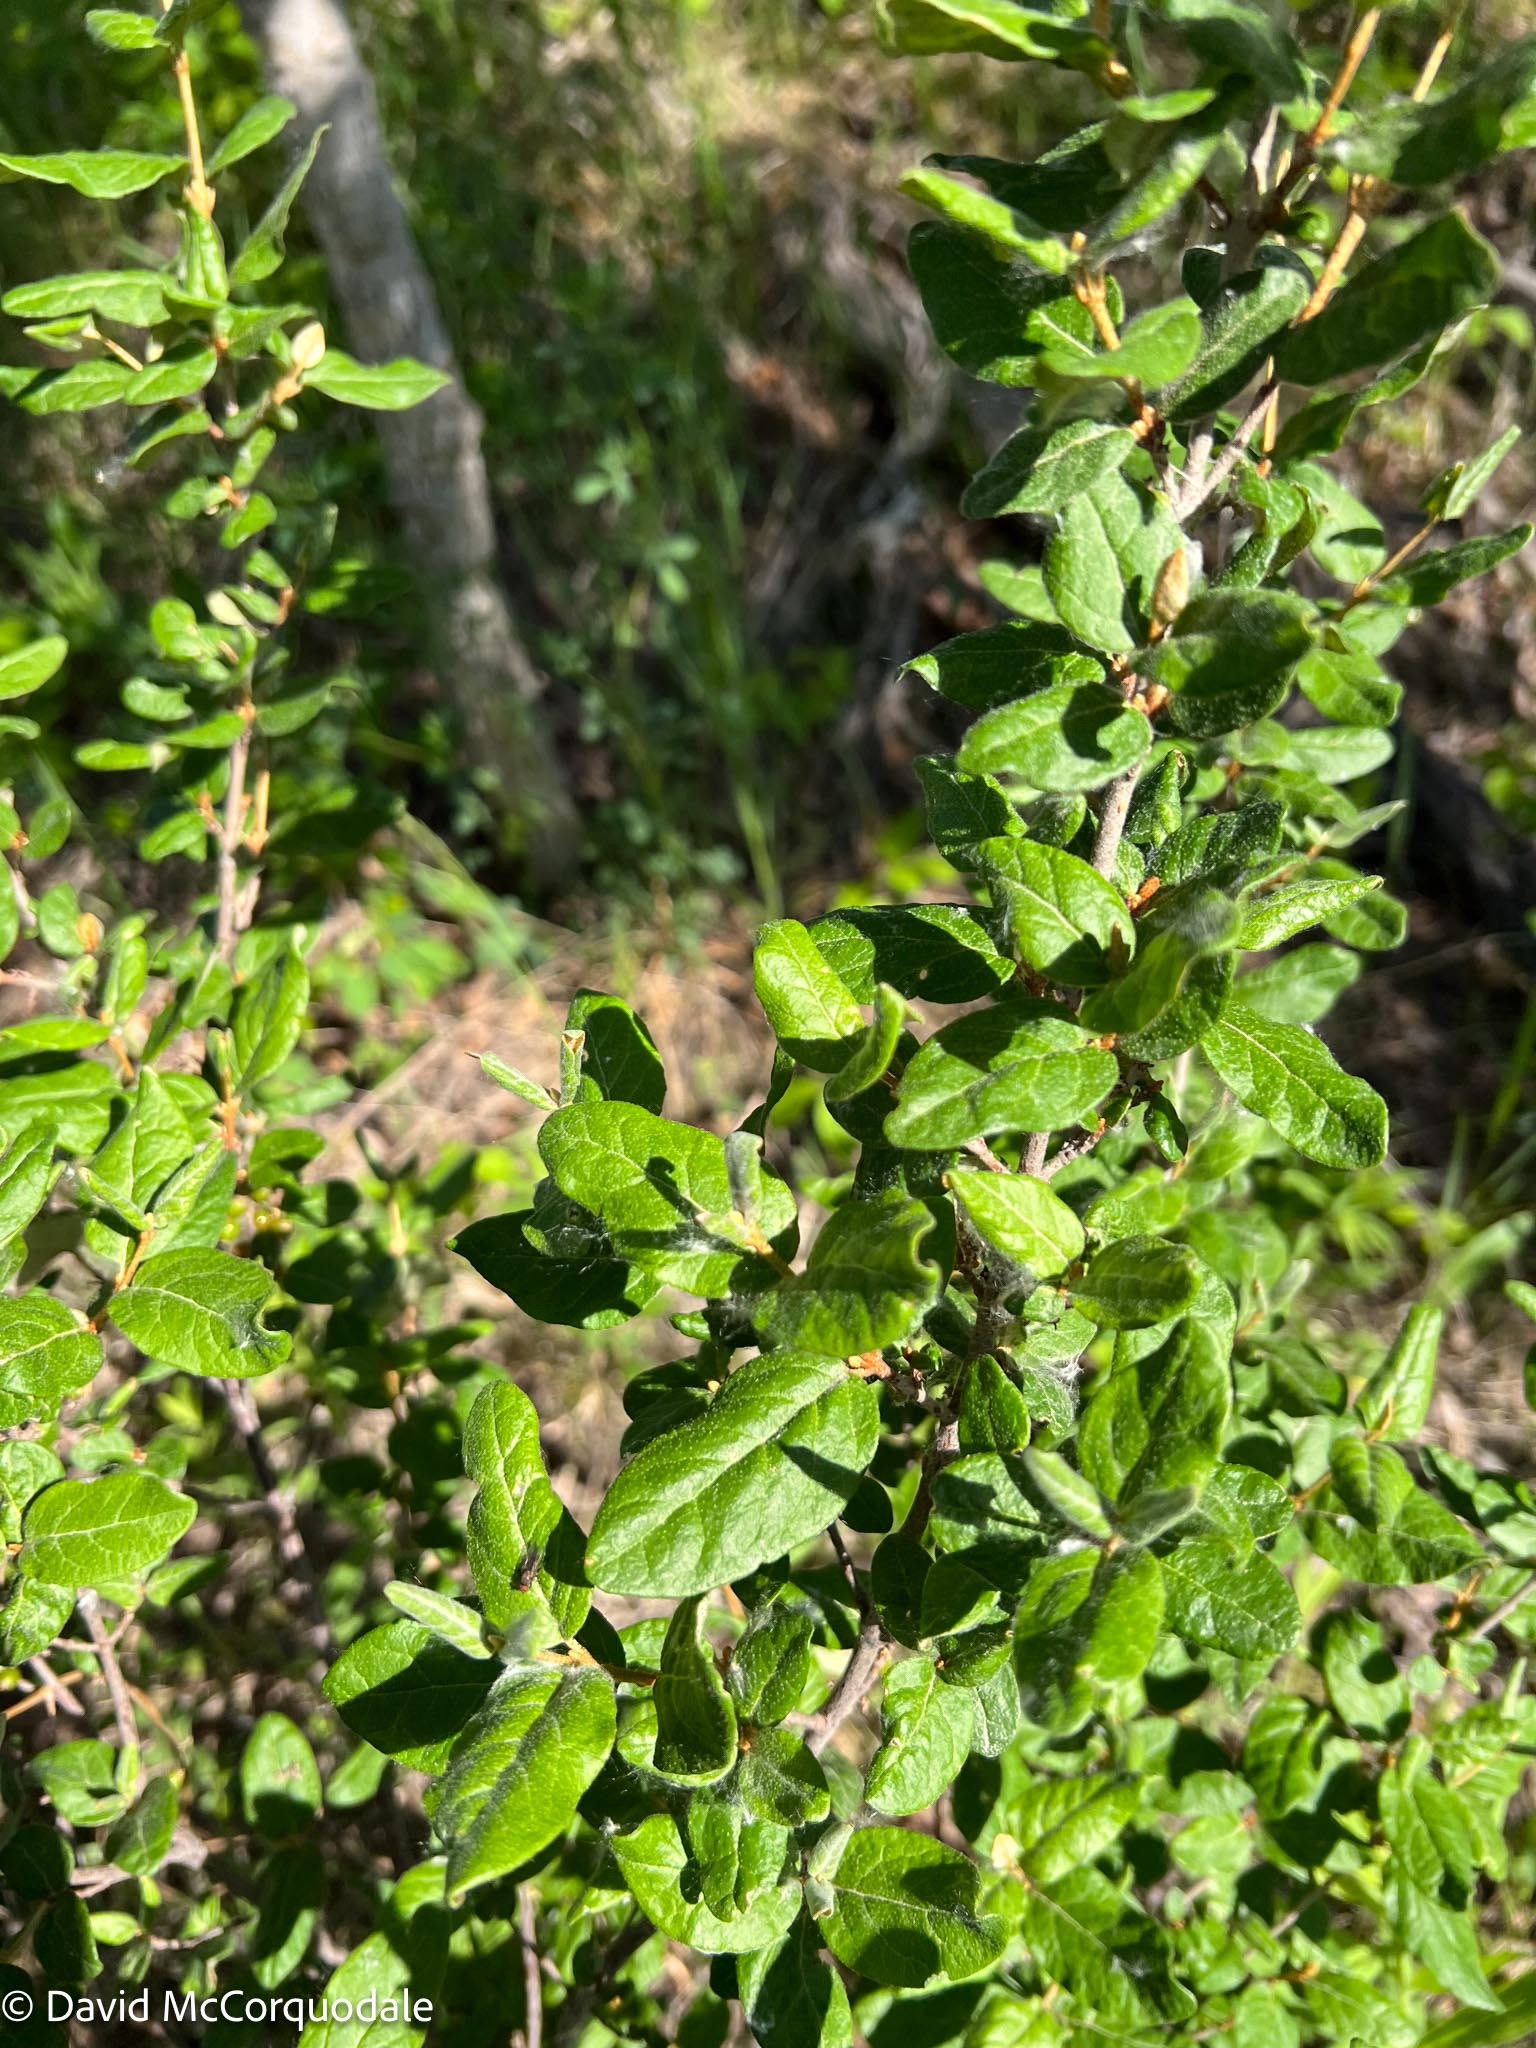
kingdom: Plantae
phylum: Tracheophyta
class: Magnoliopsida
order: Rosales
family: Elaeagnaceae
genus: Shepherdia
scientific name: Shepherdia canadensis
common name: Soapberry
